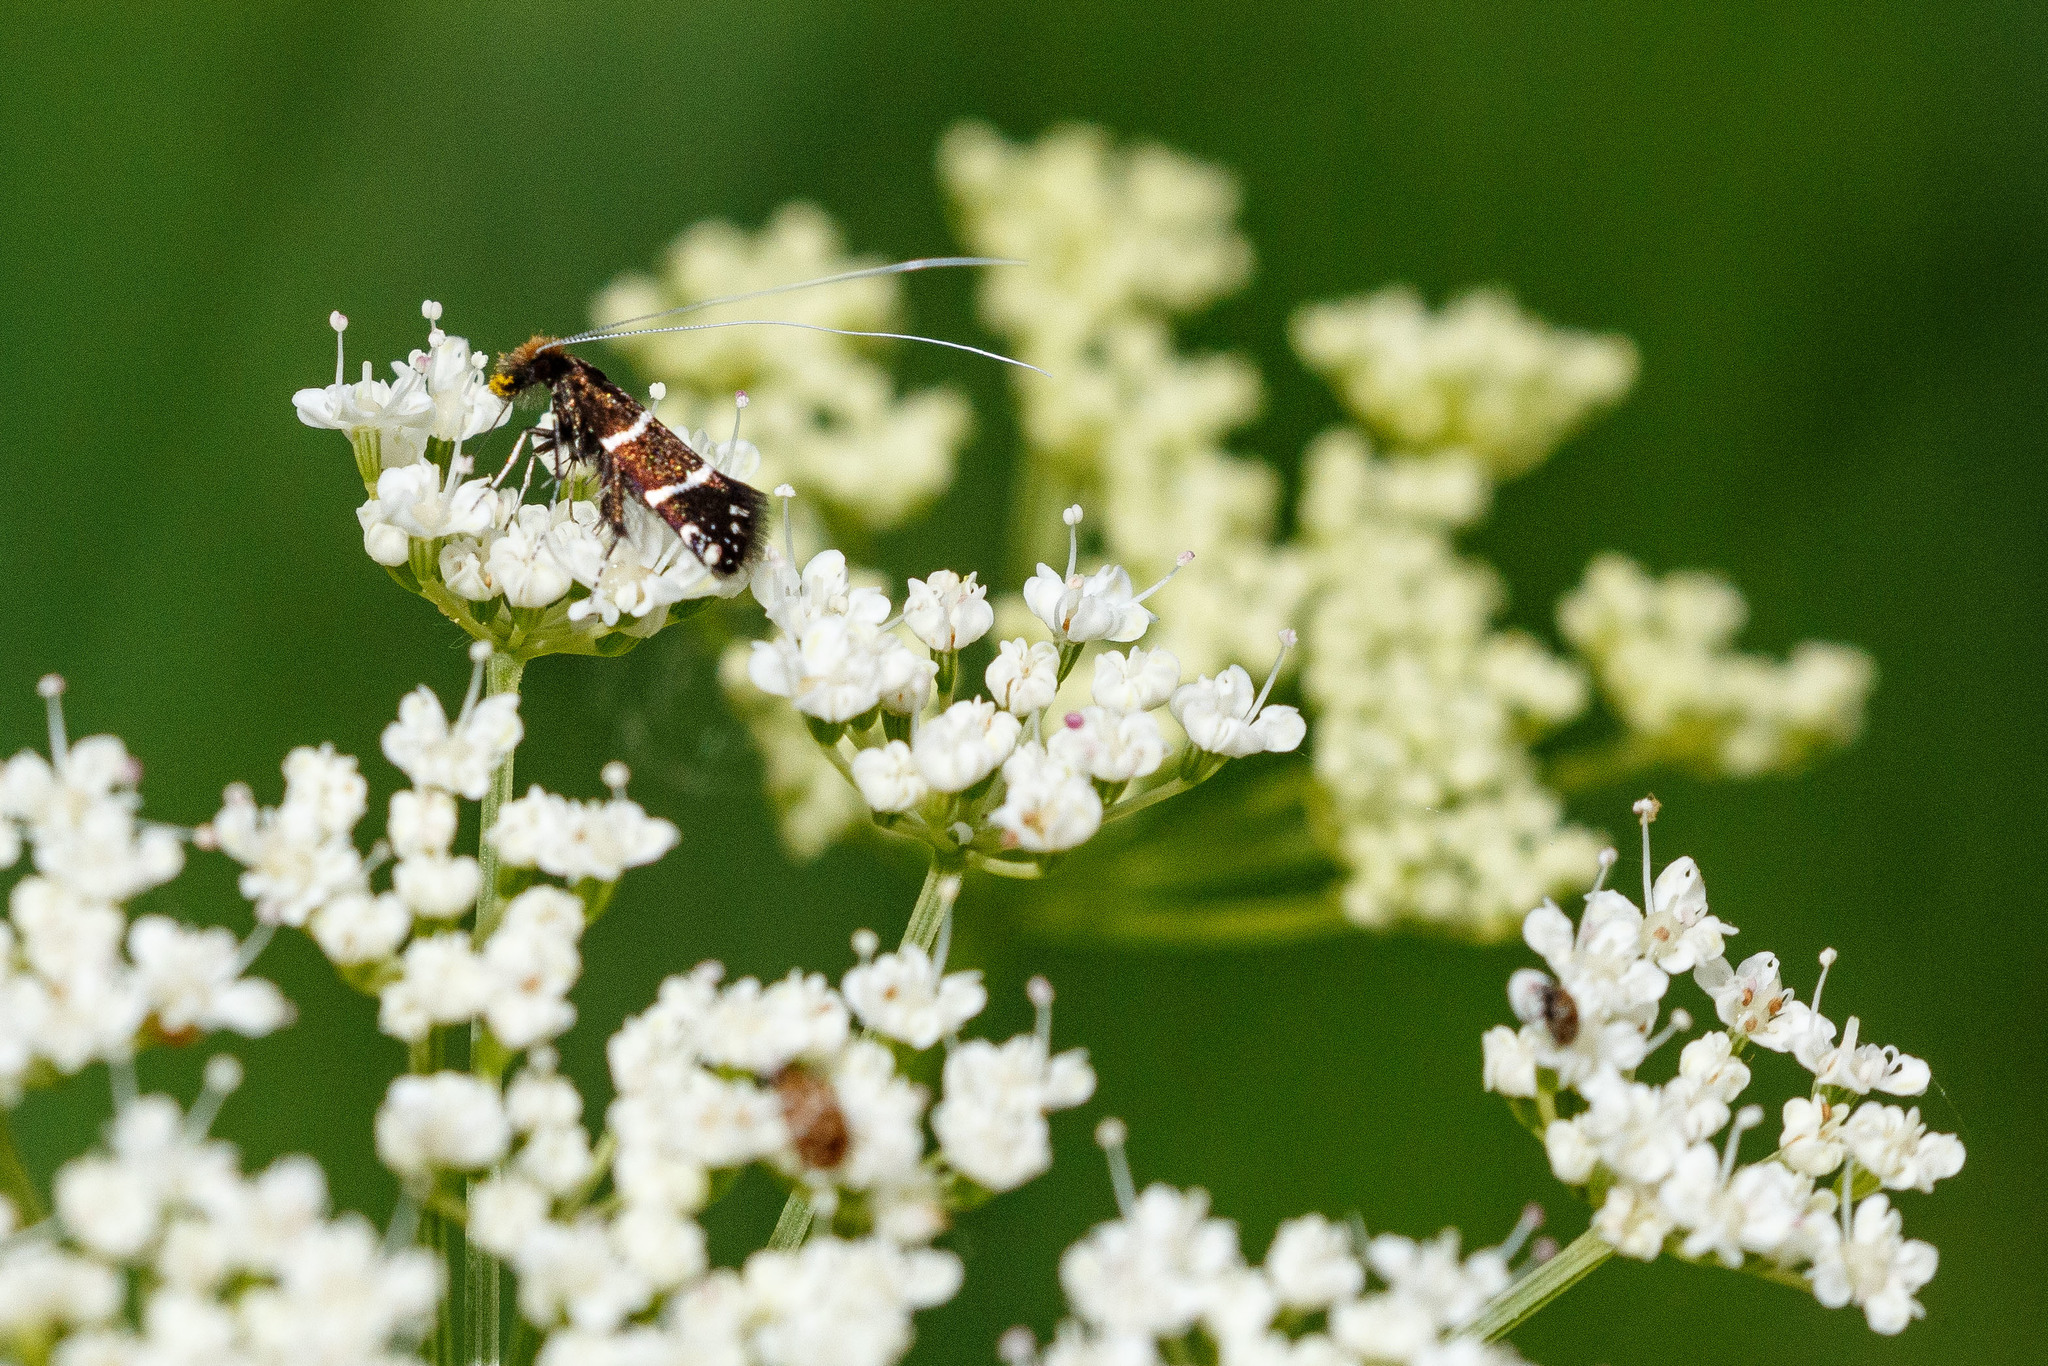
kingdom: Animalia
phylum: Arthropoda
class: Insecta
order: Lepidoptera
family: Adelidae
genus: Adela
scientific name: Adela septentrionella
